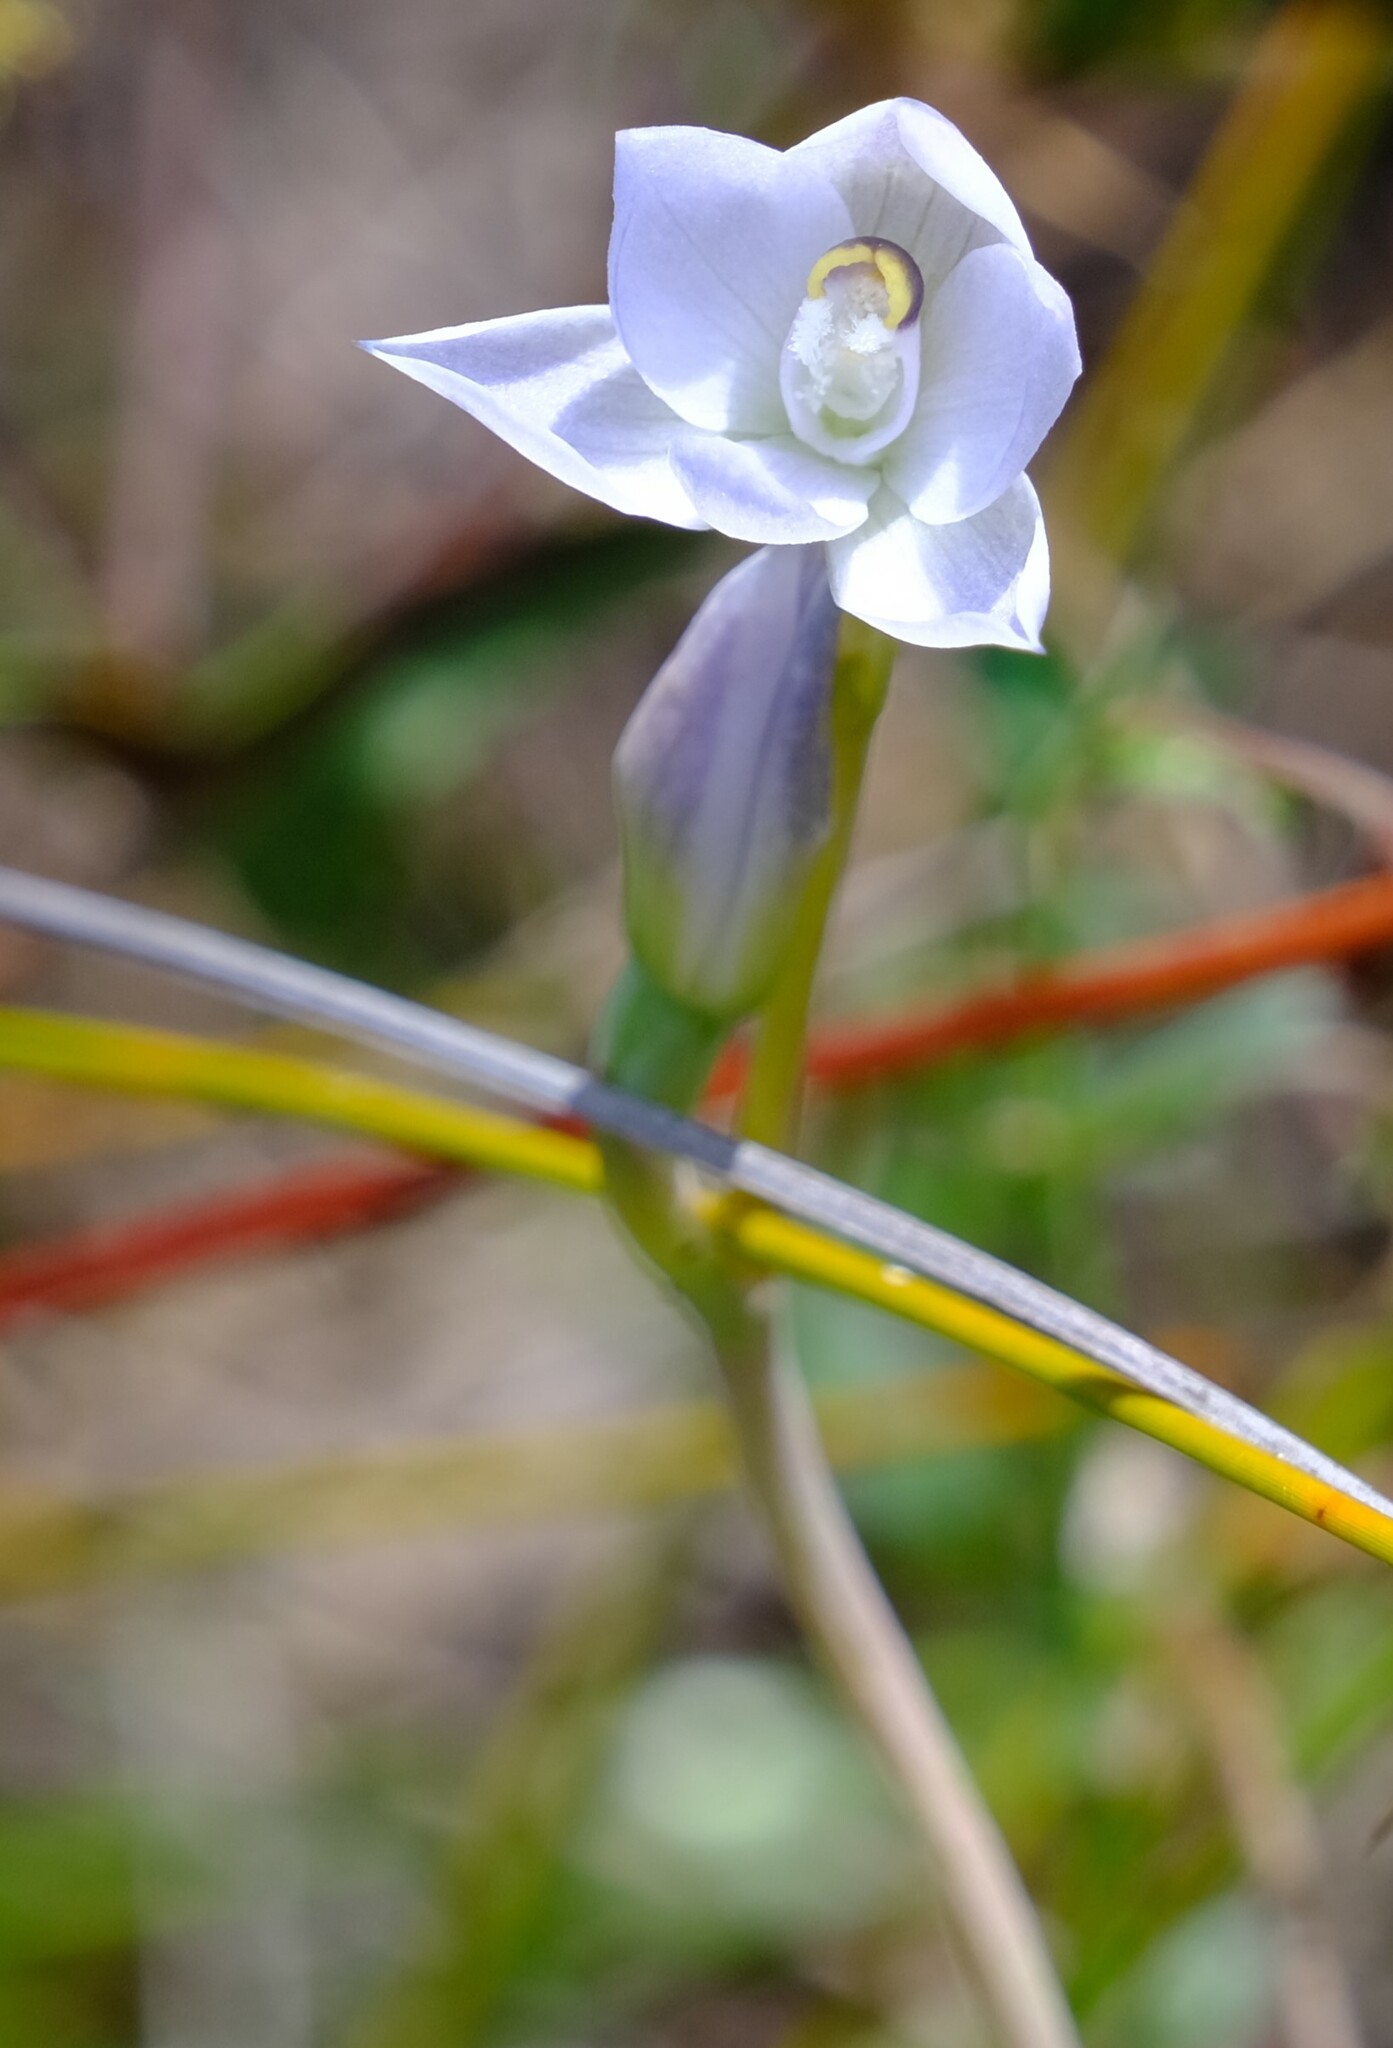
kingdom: Plantae
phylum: Tracheophyta
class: Liliopsida
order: Asparagales
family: Orchidaceae
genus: Thelymitra
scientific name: Thelymitra pallidiflora
